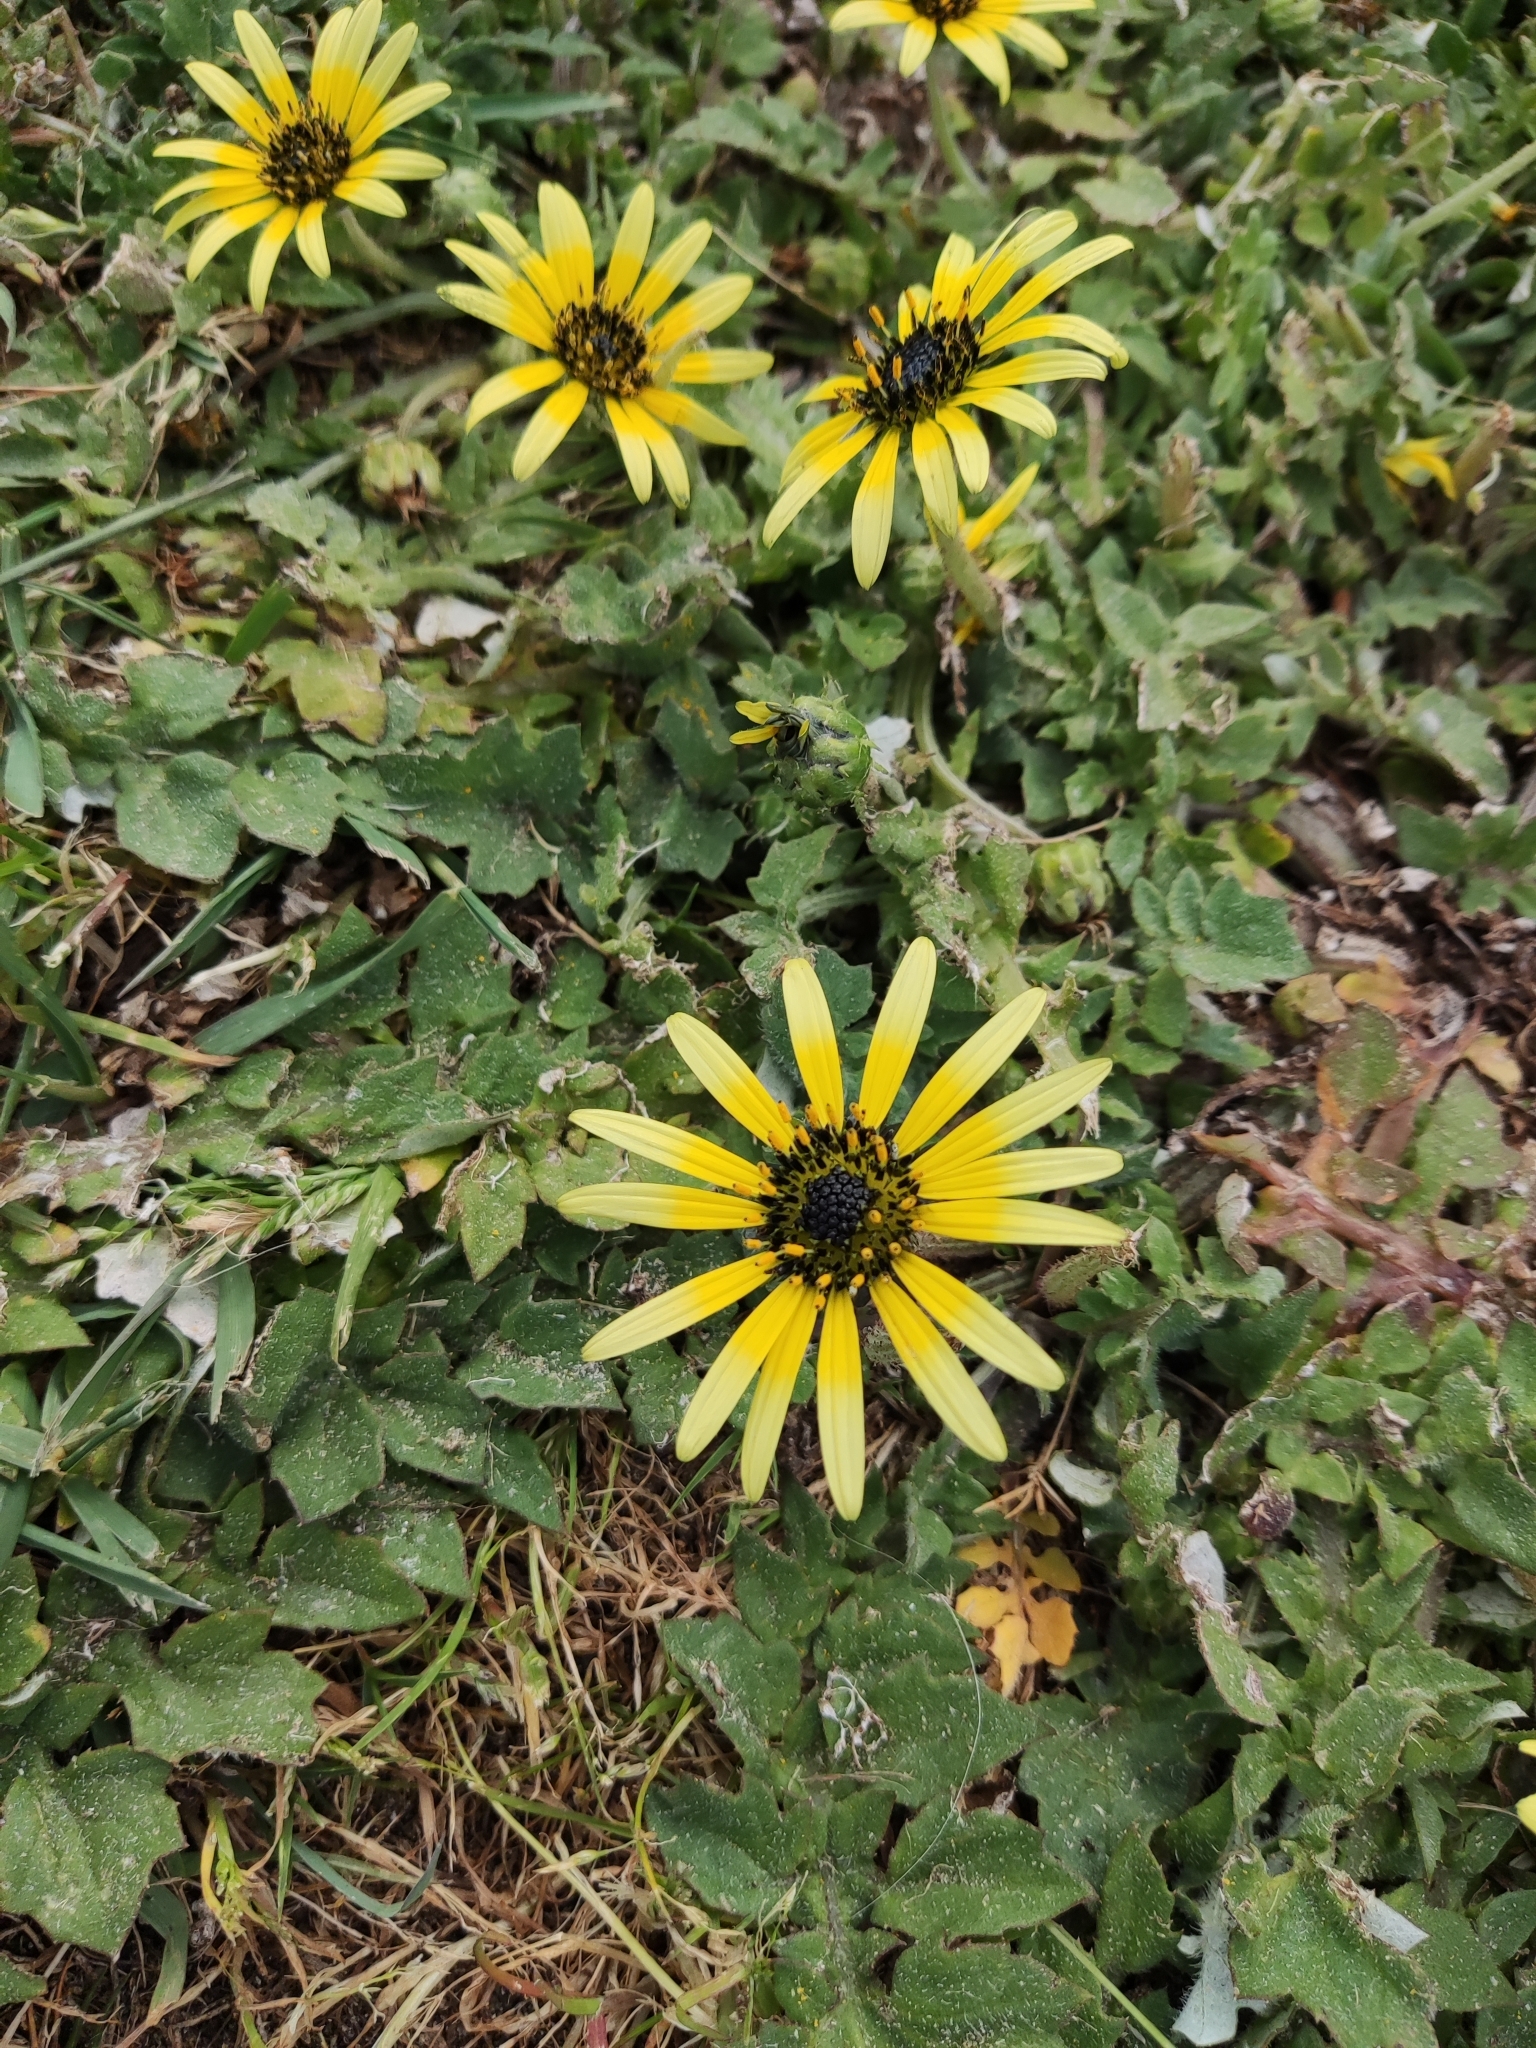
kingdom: Plantae
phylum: Tracheophyta
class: Magnoliopsida
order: Asterales
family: Asteraceae
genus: Arctotheca
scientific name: Arctotheca calendula
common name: Capeweed
